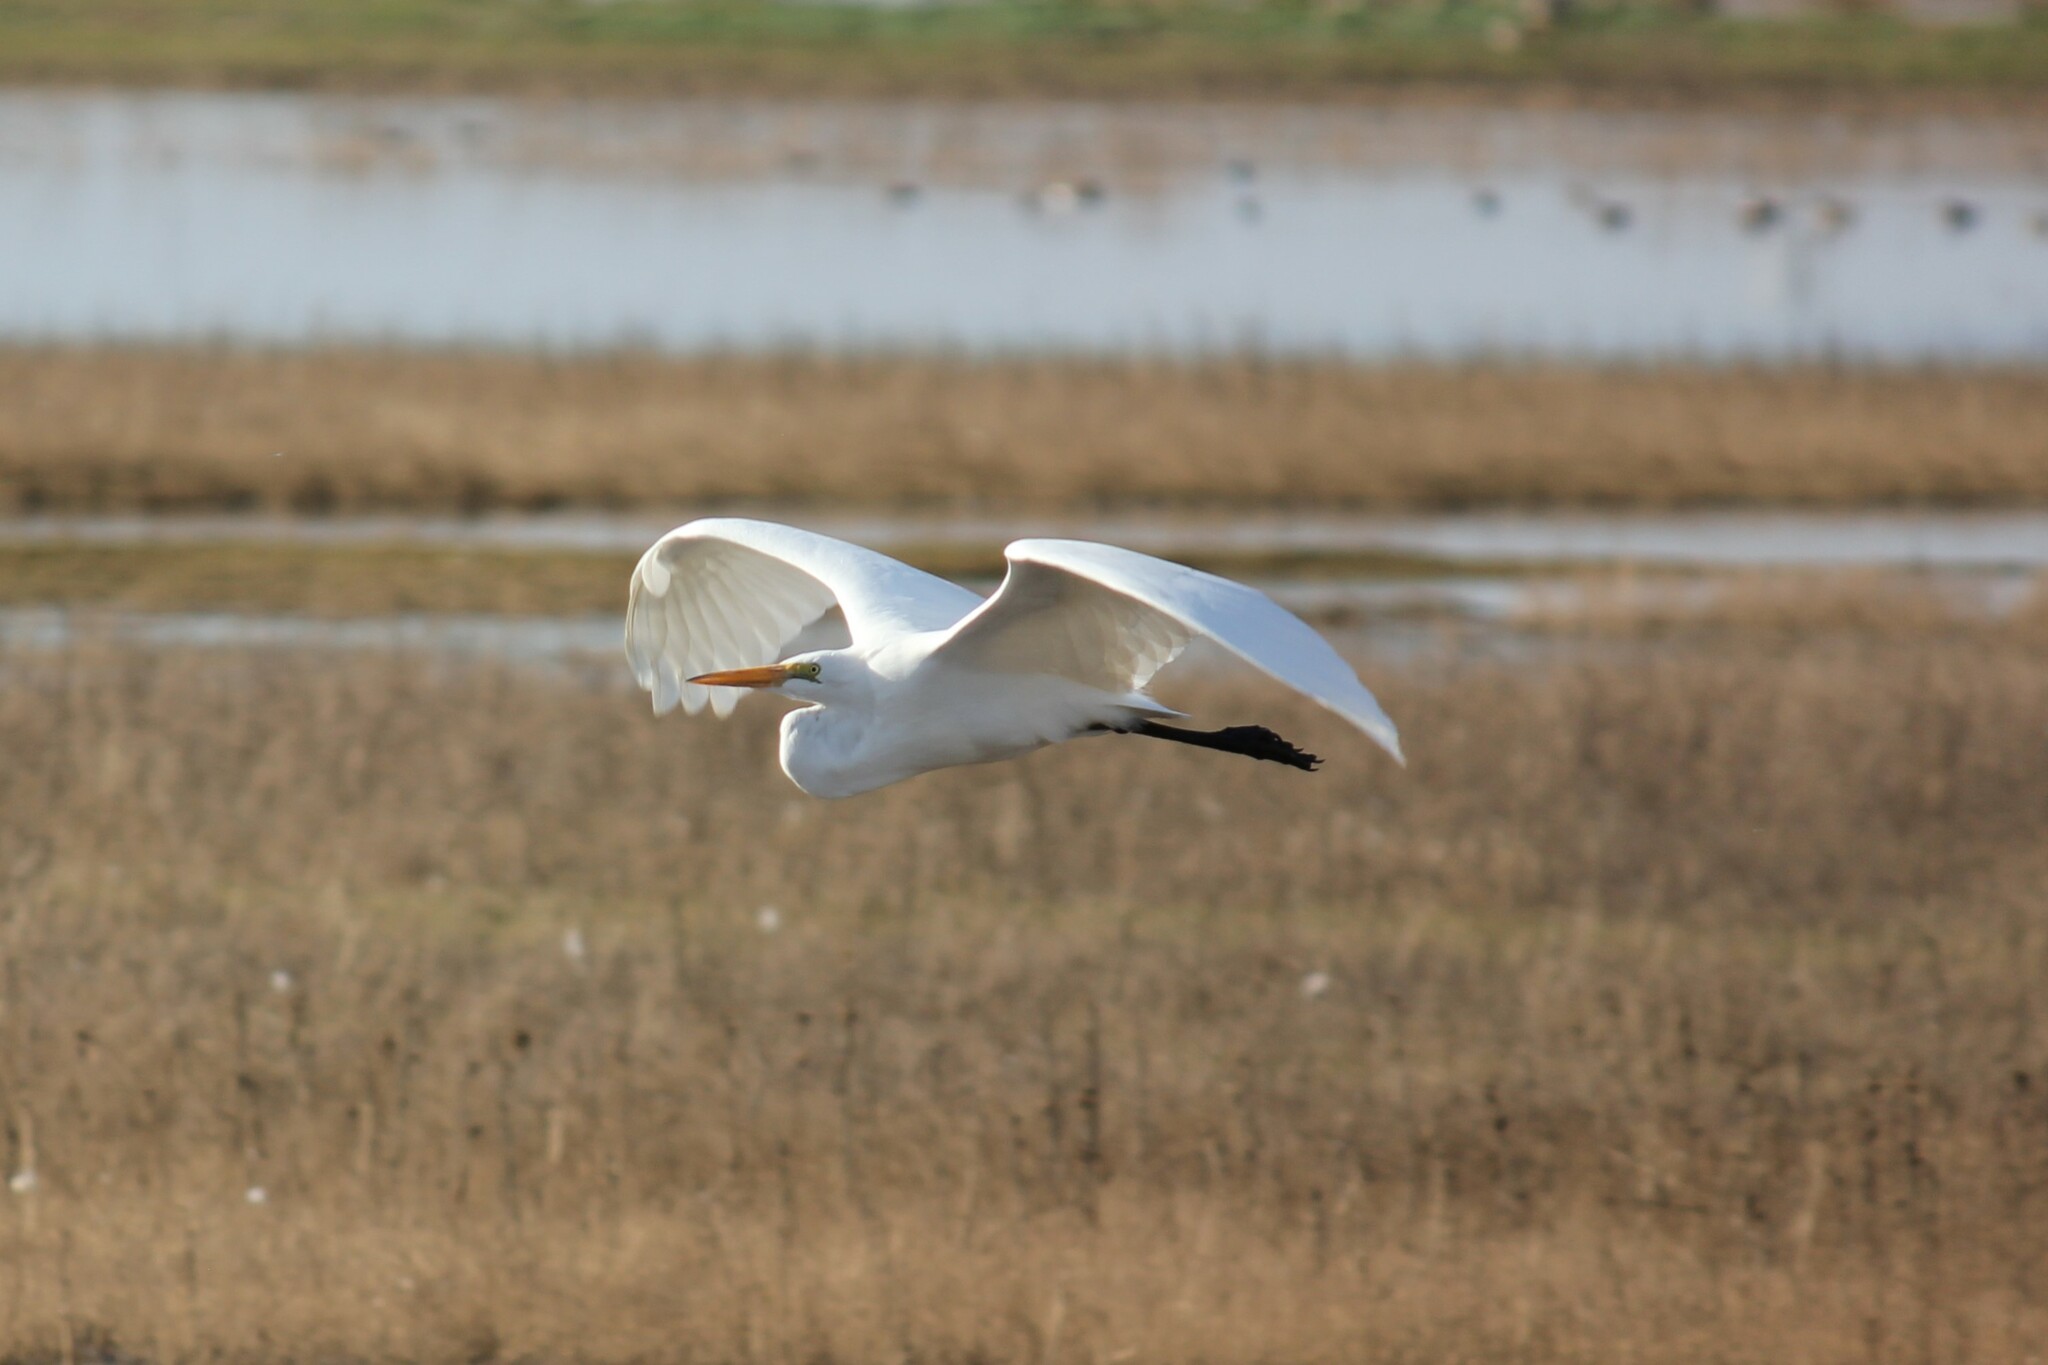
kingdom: Animalia
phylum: Chordata
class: Aves
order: Pelecaniformes
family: Ardeidae
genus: Ardea
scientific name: Ardea alba
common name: Great egret
